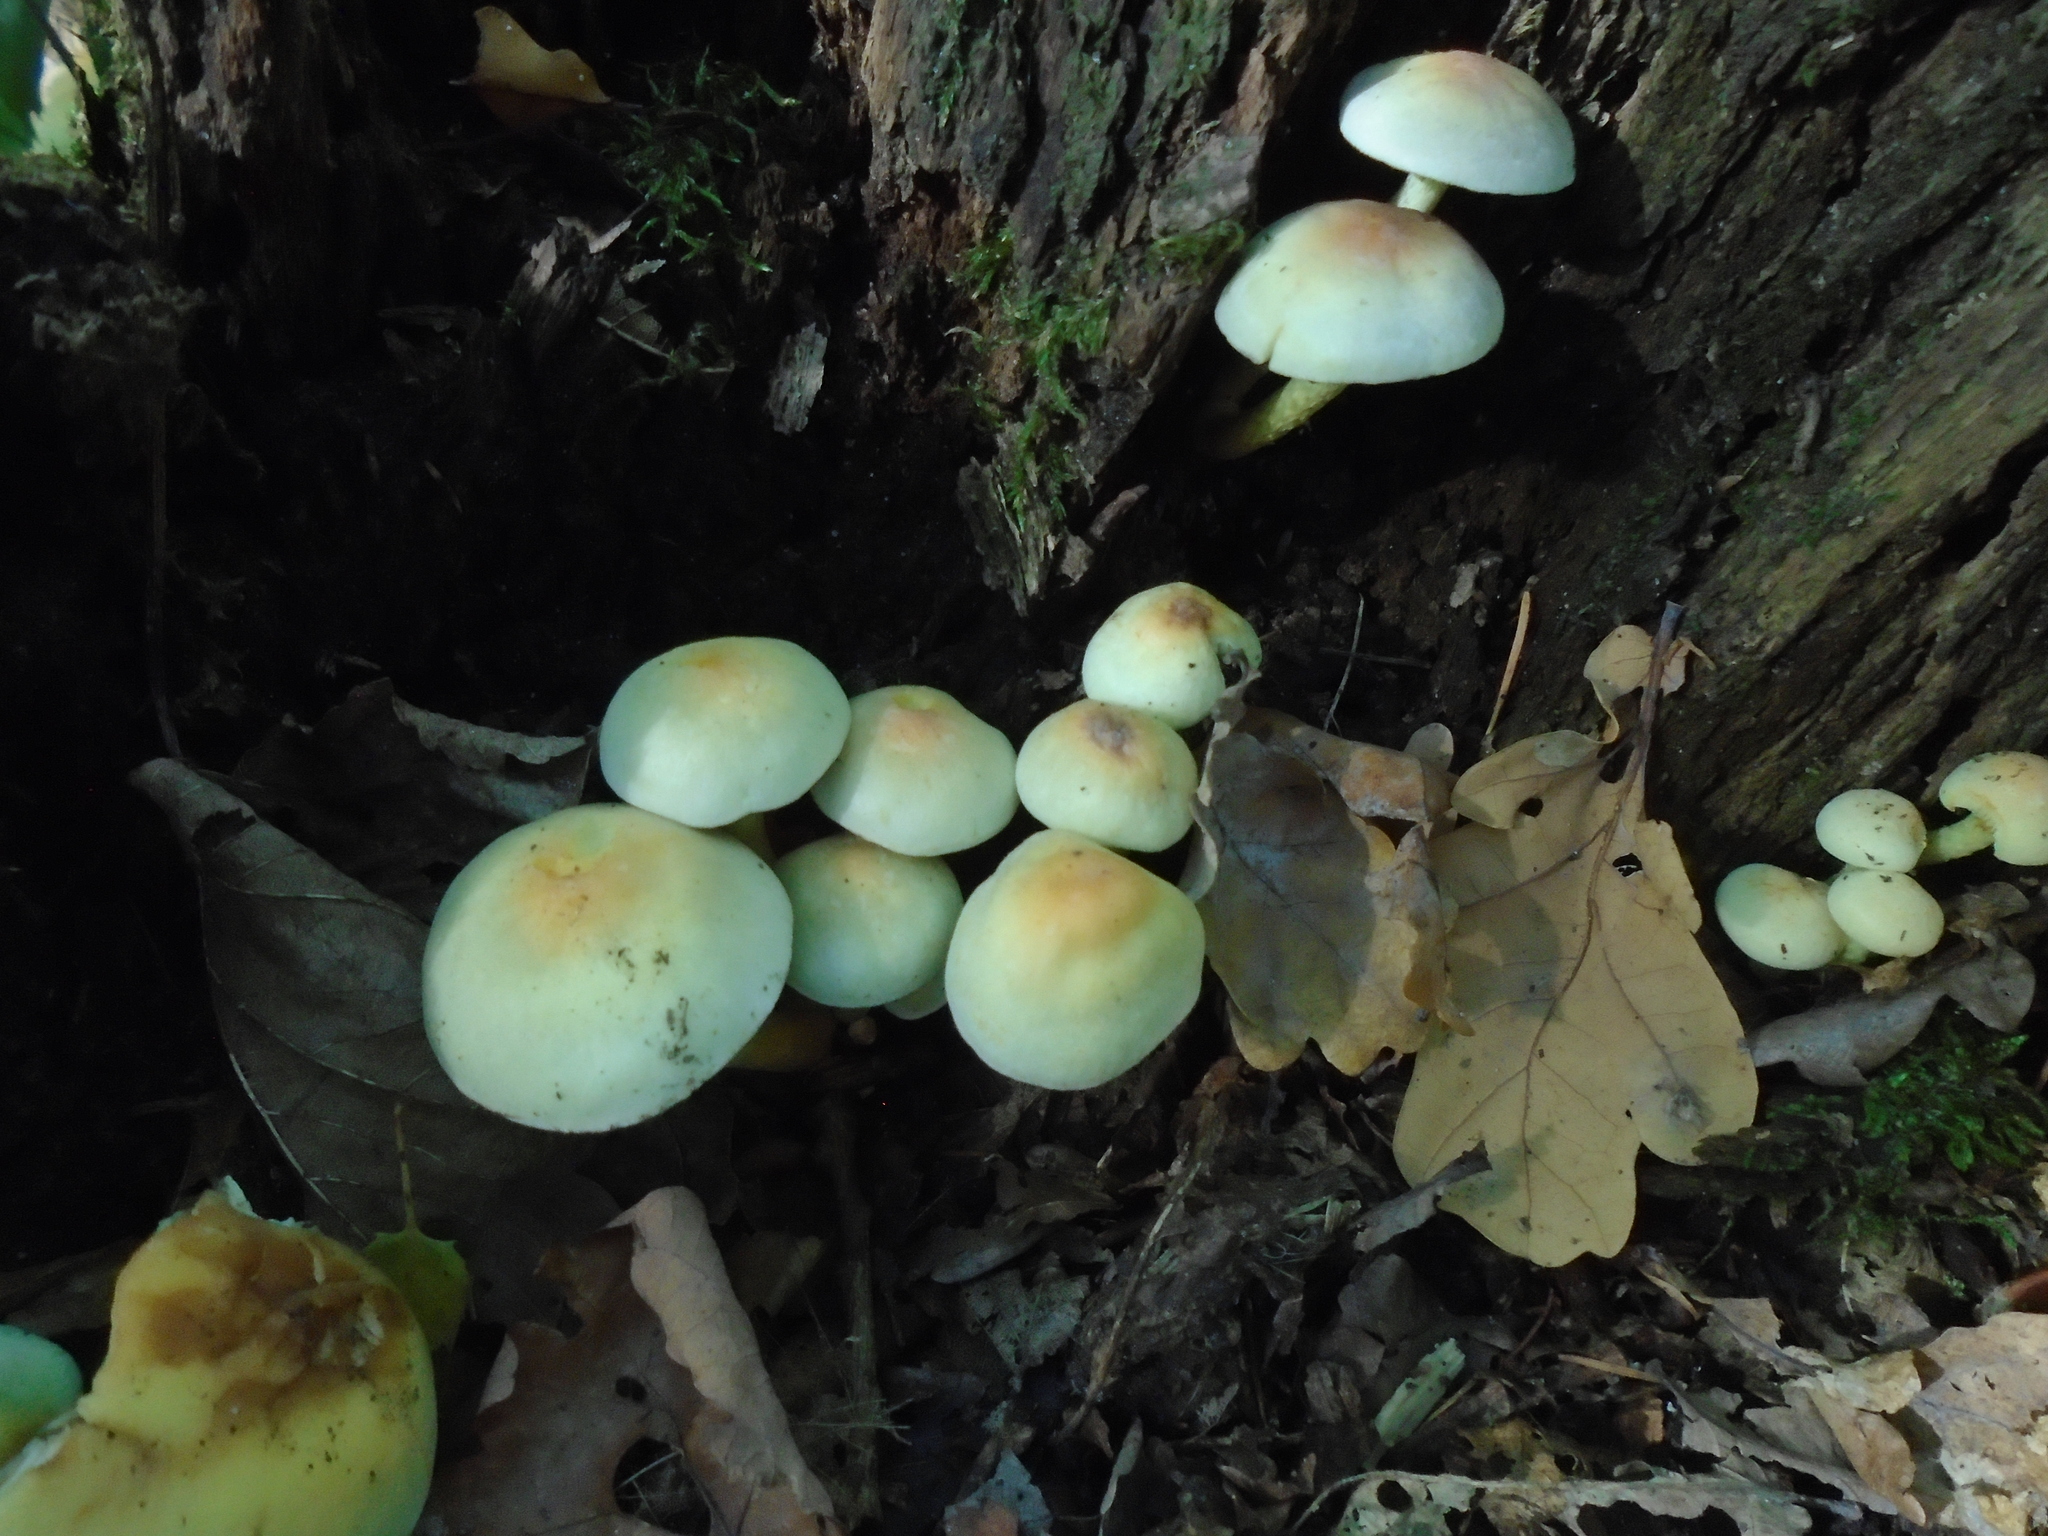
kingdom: Fungi
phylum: Basidiomycota
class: Agaricomycetes
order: Agaricales
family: Strophariaceae
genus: Hypholoma
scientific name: Hypholoma fasciculare
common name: Sulphur tuft
